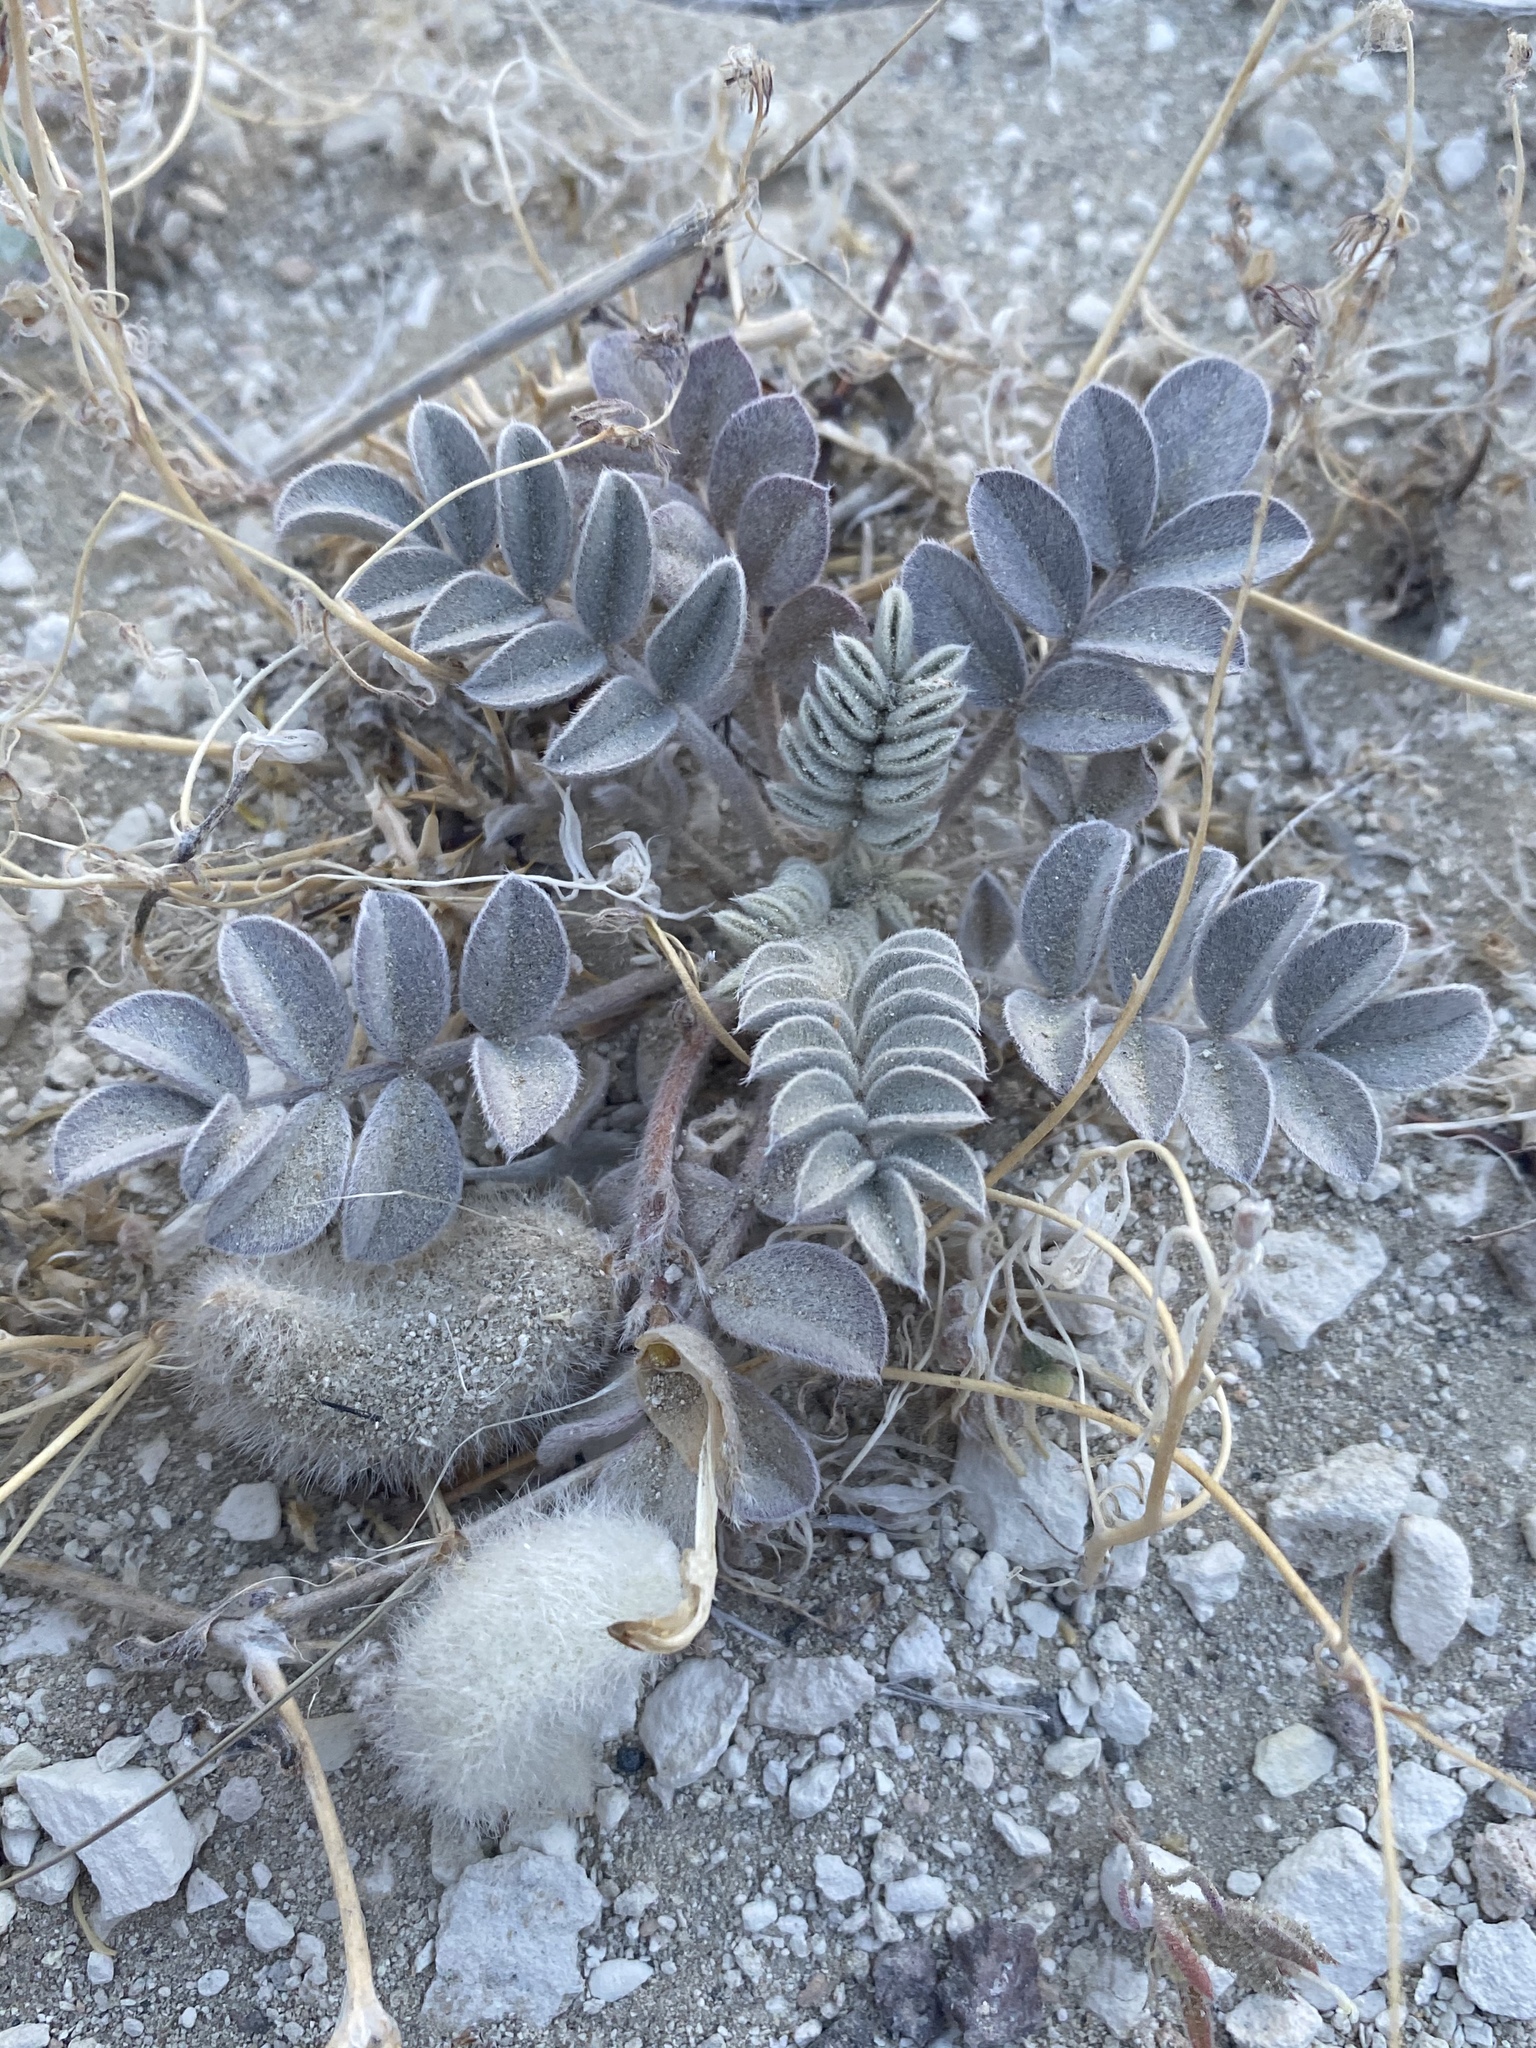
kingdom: Plantae
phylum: Tracheophyta
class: Magnoliopsida
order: Fabales
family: Fabaceae
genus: Astragalus
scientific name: Astragalus newberryi
